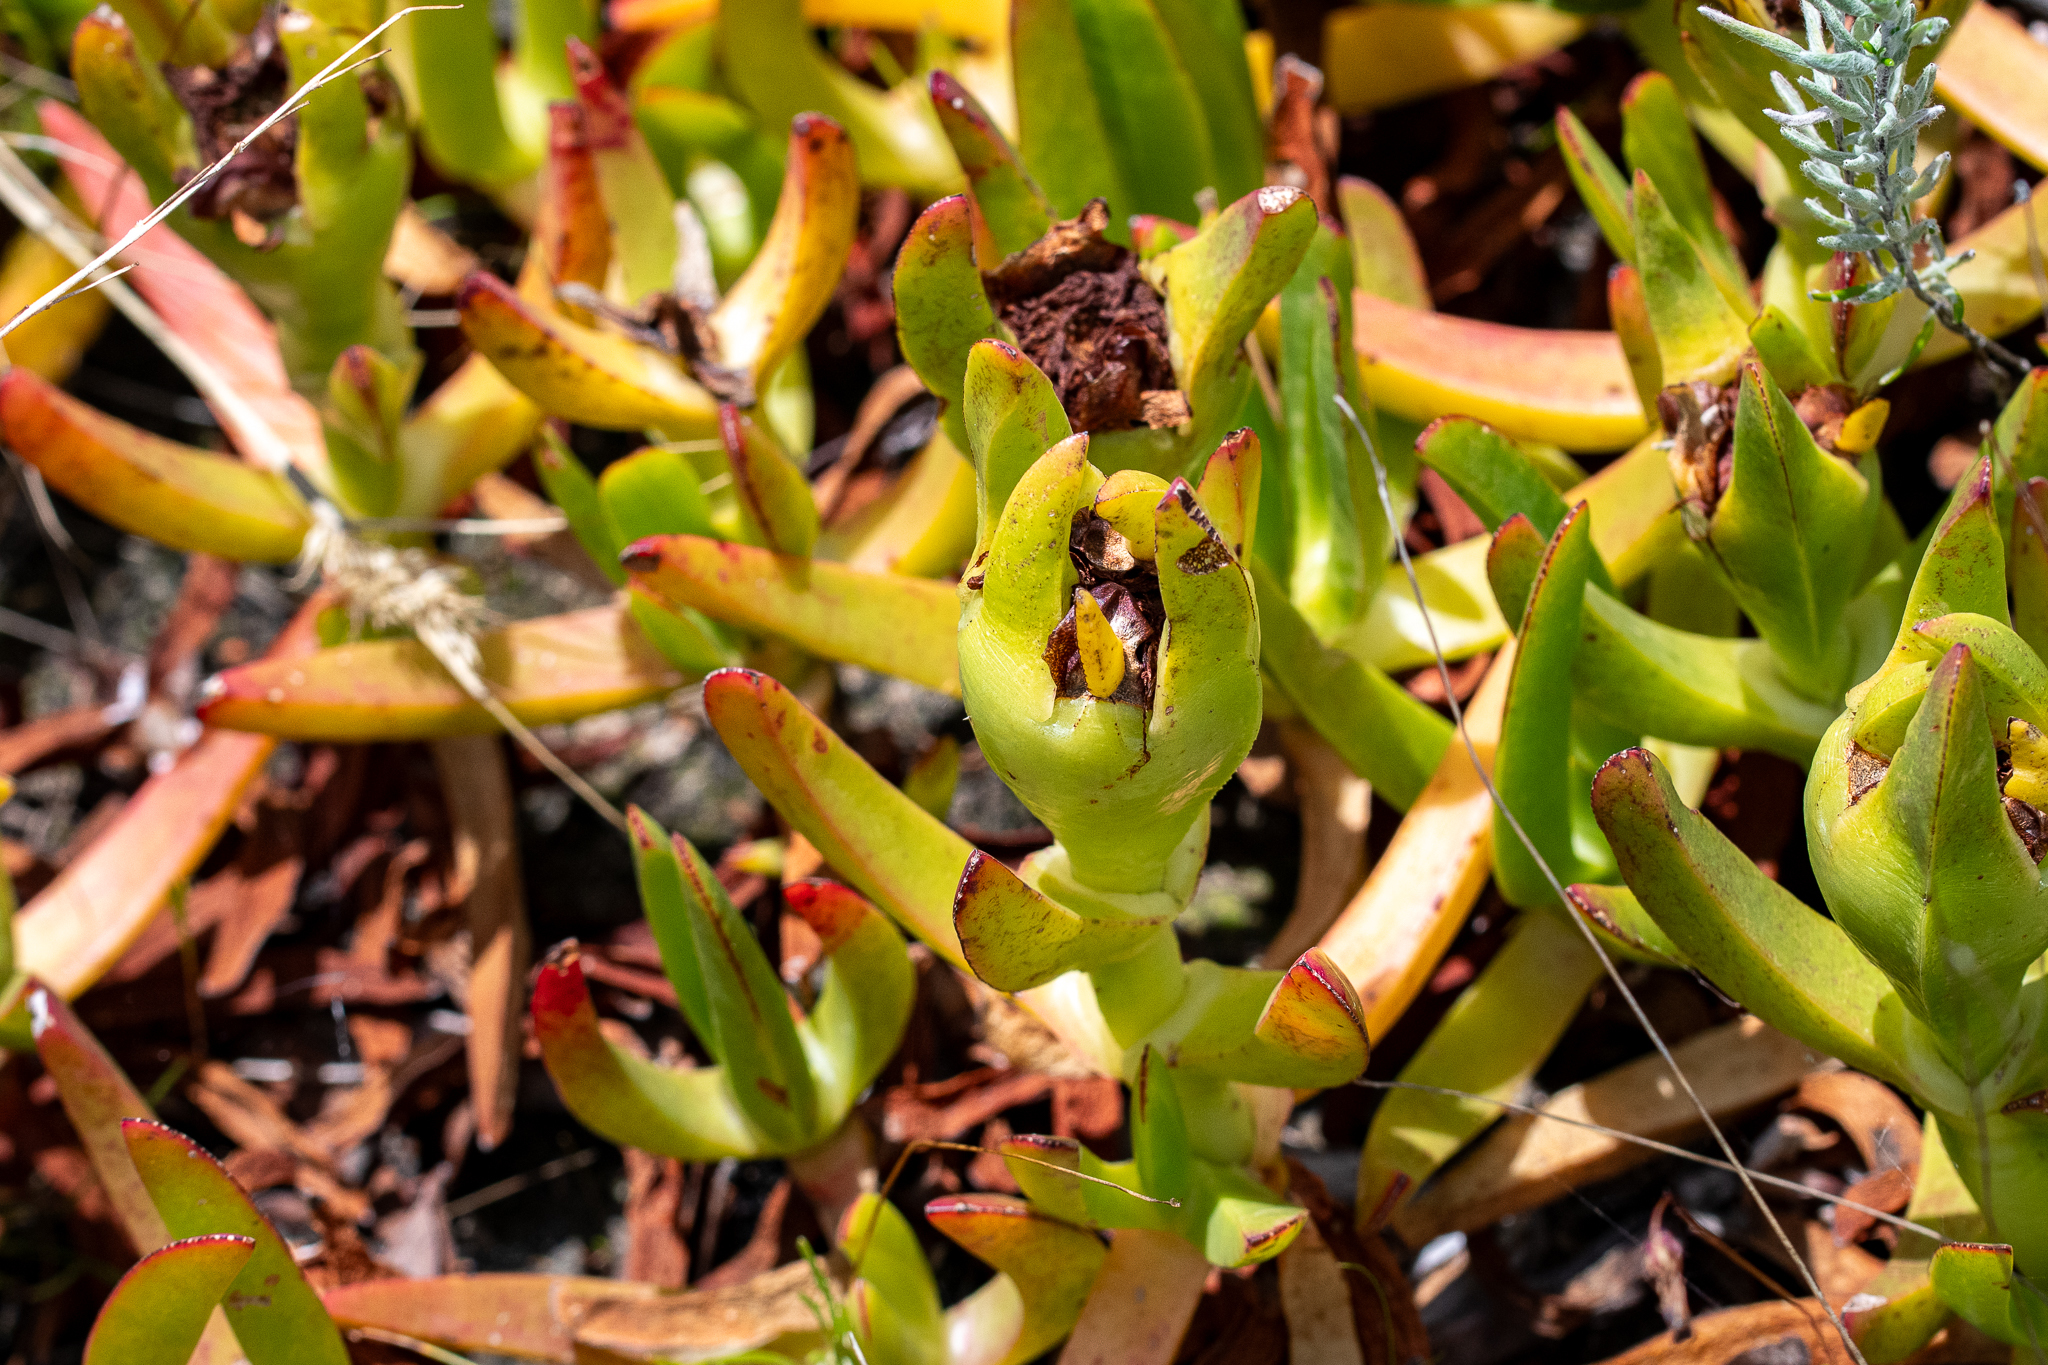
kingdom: Plantae
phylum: Tracheophyta
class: Magnoliopsida
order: Caryophyllales
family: Aizoaceae
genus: Carpobrotus
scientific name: Carpobrotus edulis
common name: Hottentot-fig
